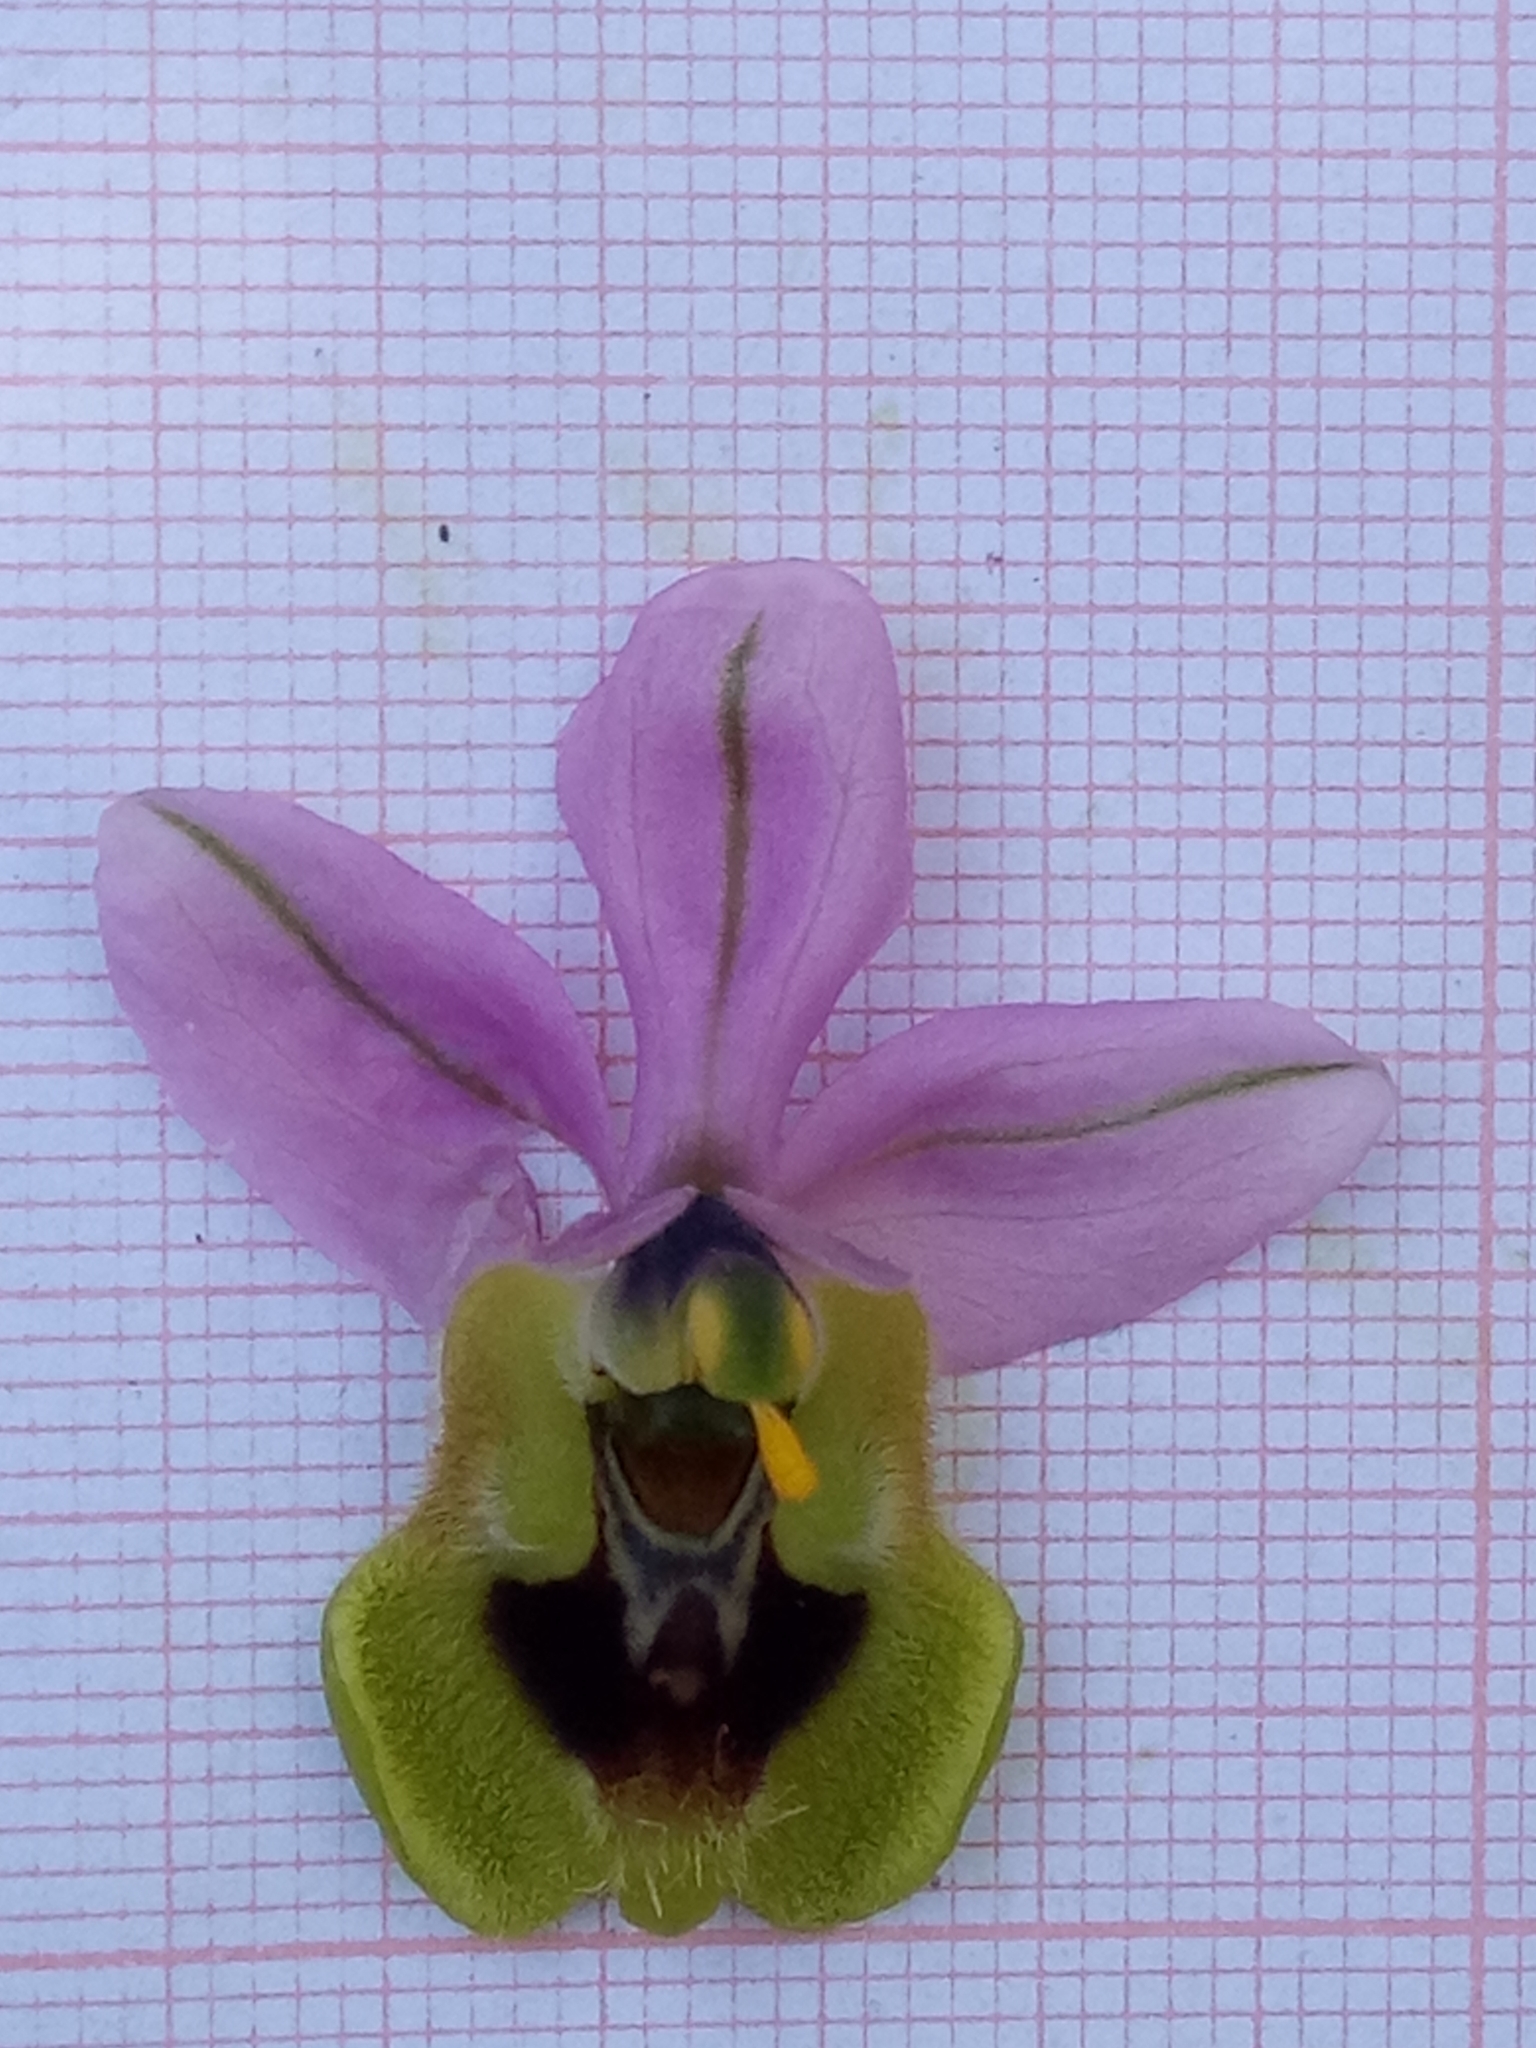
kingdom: Plantae
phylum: Tracheophyta
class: Liliopsida
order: Asparagales
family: Orchidaceae
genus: Ophrys
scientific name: Ophrys tenthredinifera
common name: Sawfly orchid
